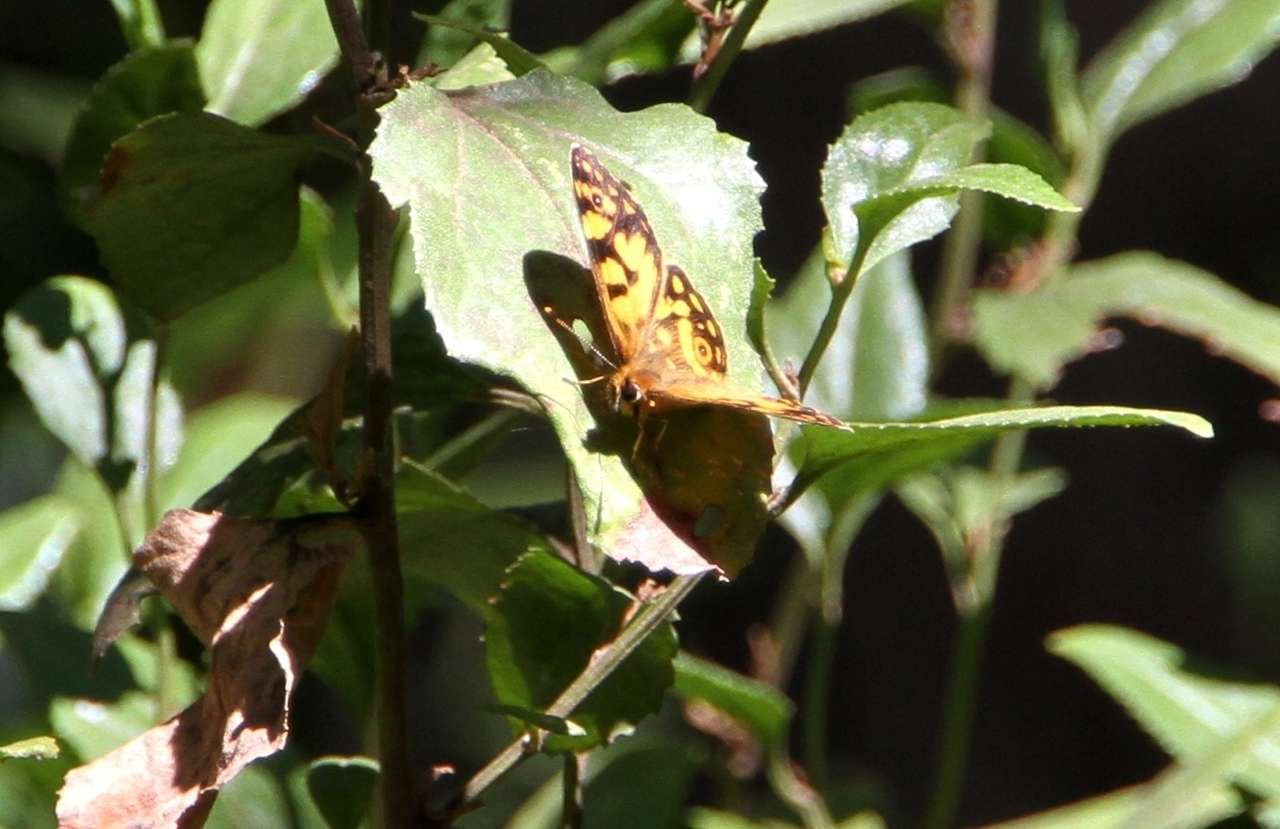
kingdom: Animalia
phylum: Arthropoda
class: Insecta
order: Lepidoptera
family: Nymphalidae
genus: Oreixenica
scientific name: Oreixenica lathoniella
